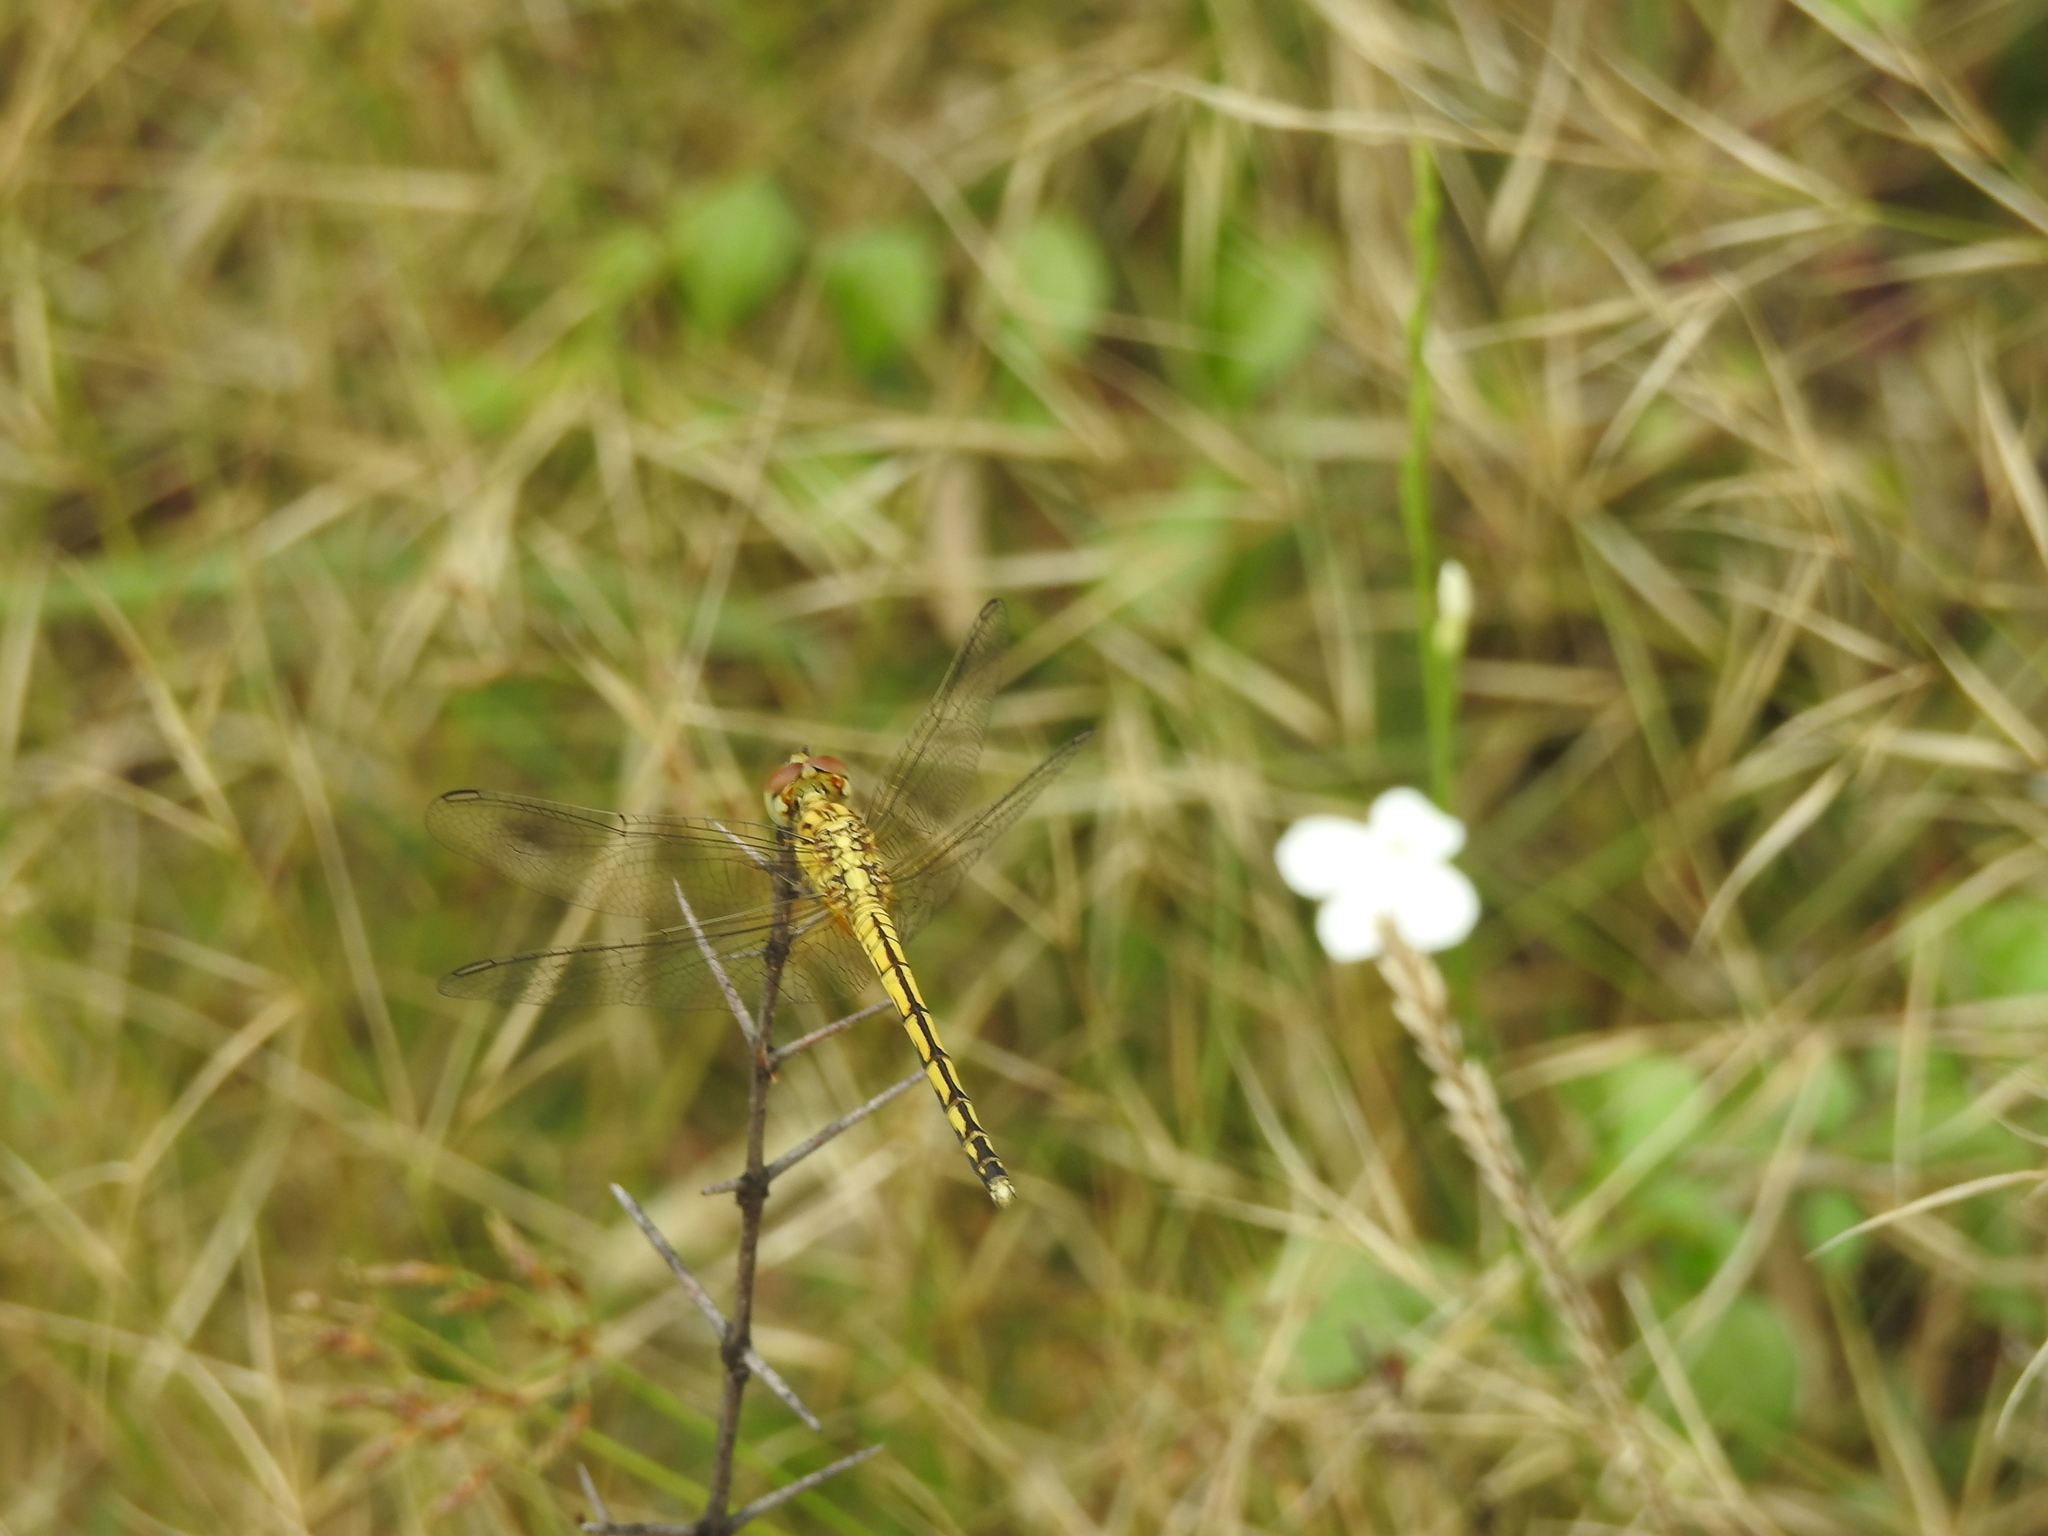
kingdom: Animalia
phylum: Arthropoda
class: Insecta
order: Odonata
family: Libellulidae
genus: Indothemis
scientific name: Indothemis carnatica
